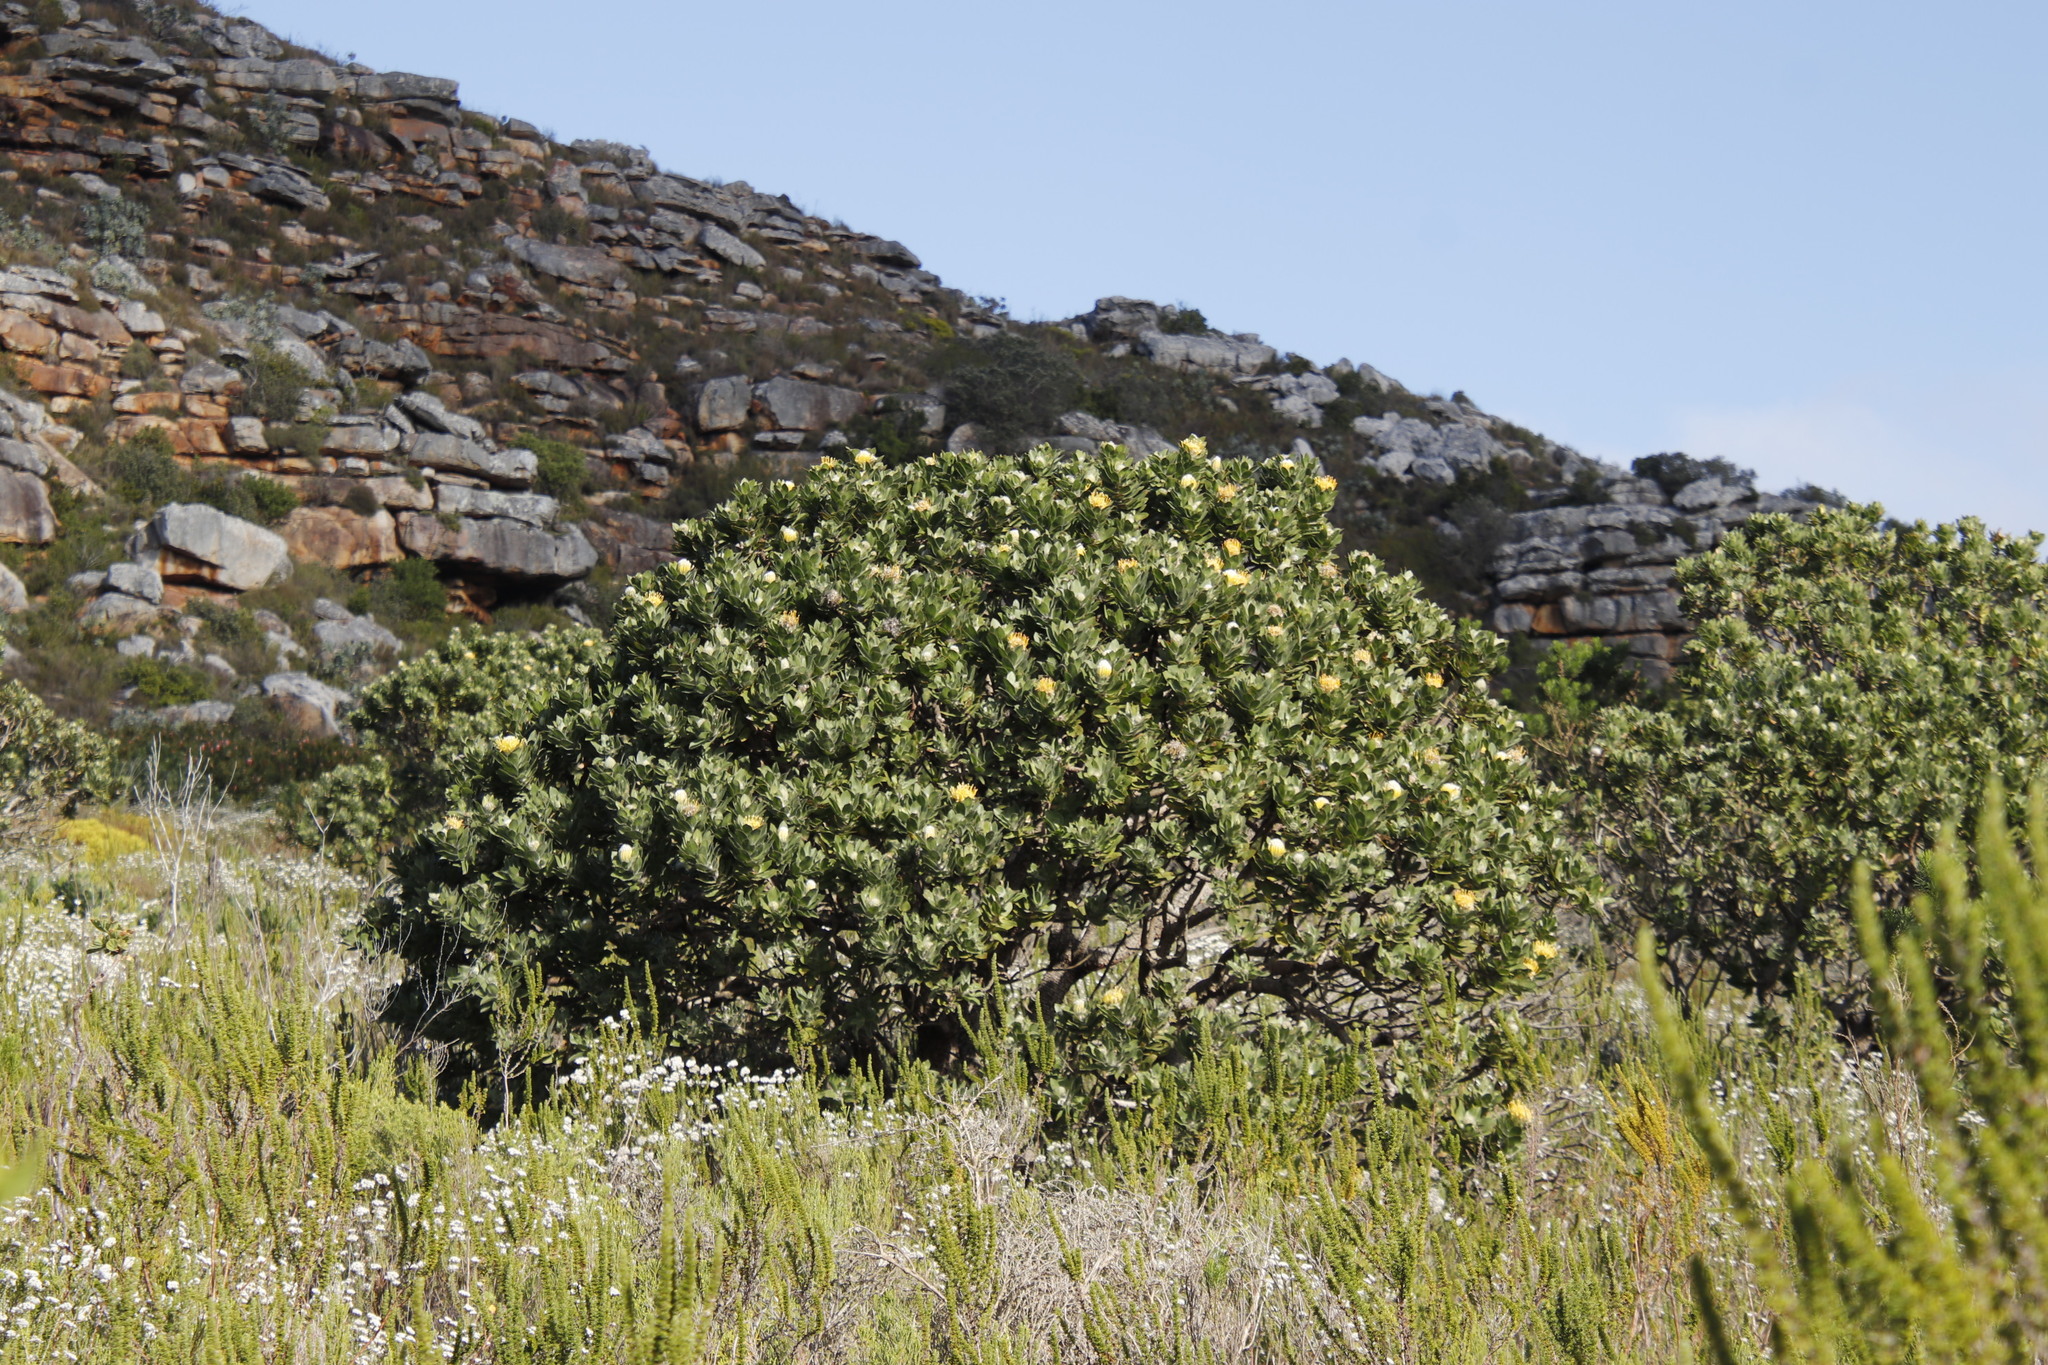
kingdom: Plantae
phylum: Tracheophyta
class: Magnoliopsida
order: Proteales
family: Proteaceae
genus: Leucospermum
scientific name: Leucospermum conocarpodendron
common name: Tree pincushion
